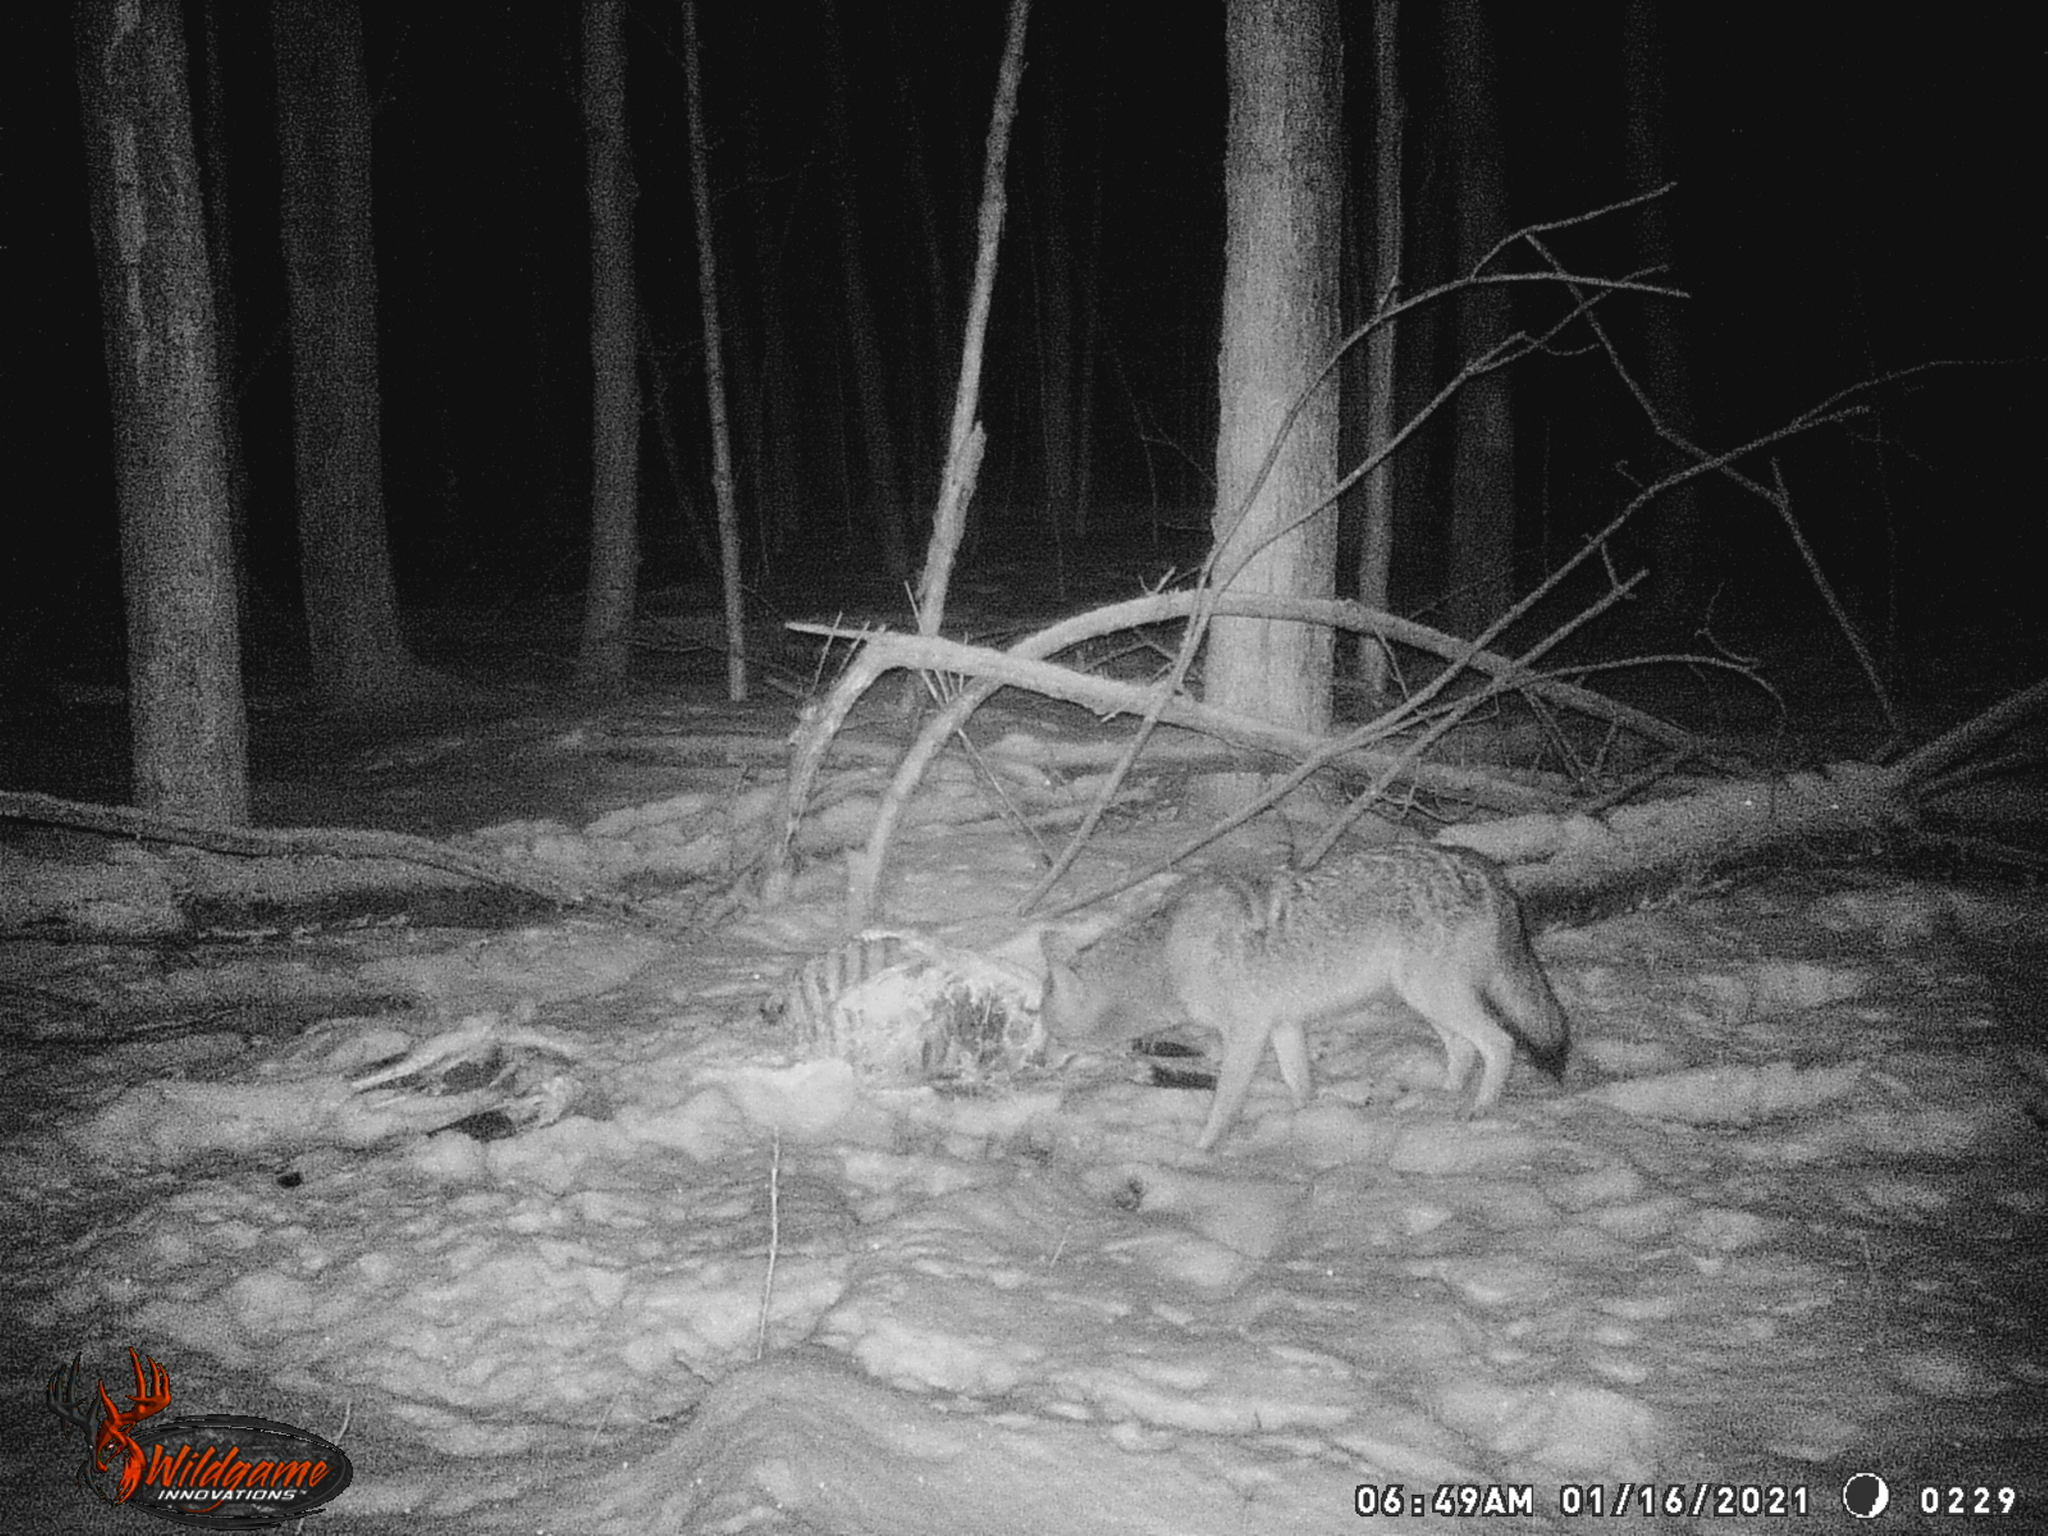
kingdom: Animalia
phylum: Chordata
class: Mammalia
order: Carnivora
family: Canidae
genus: Canis
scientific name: Canis latrans
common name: Coyote
